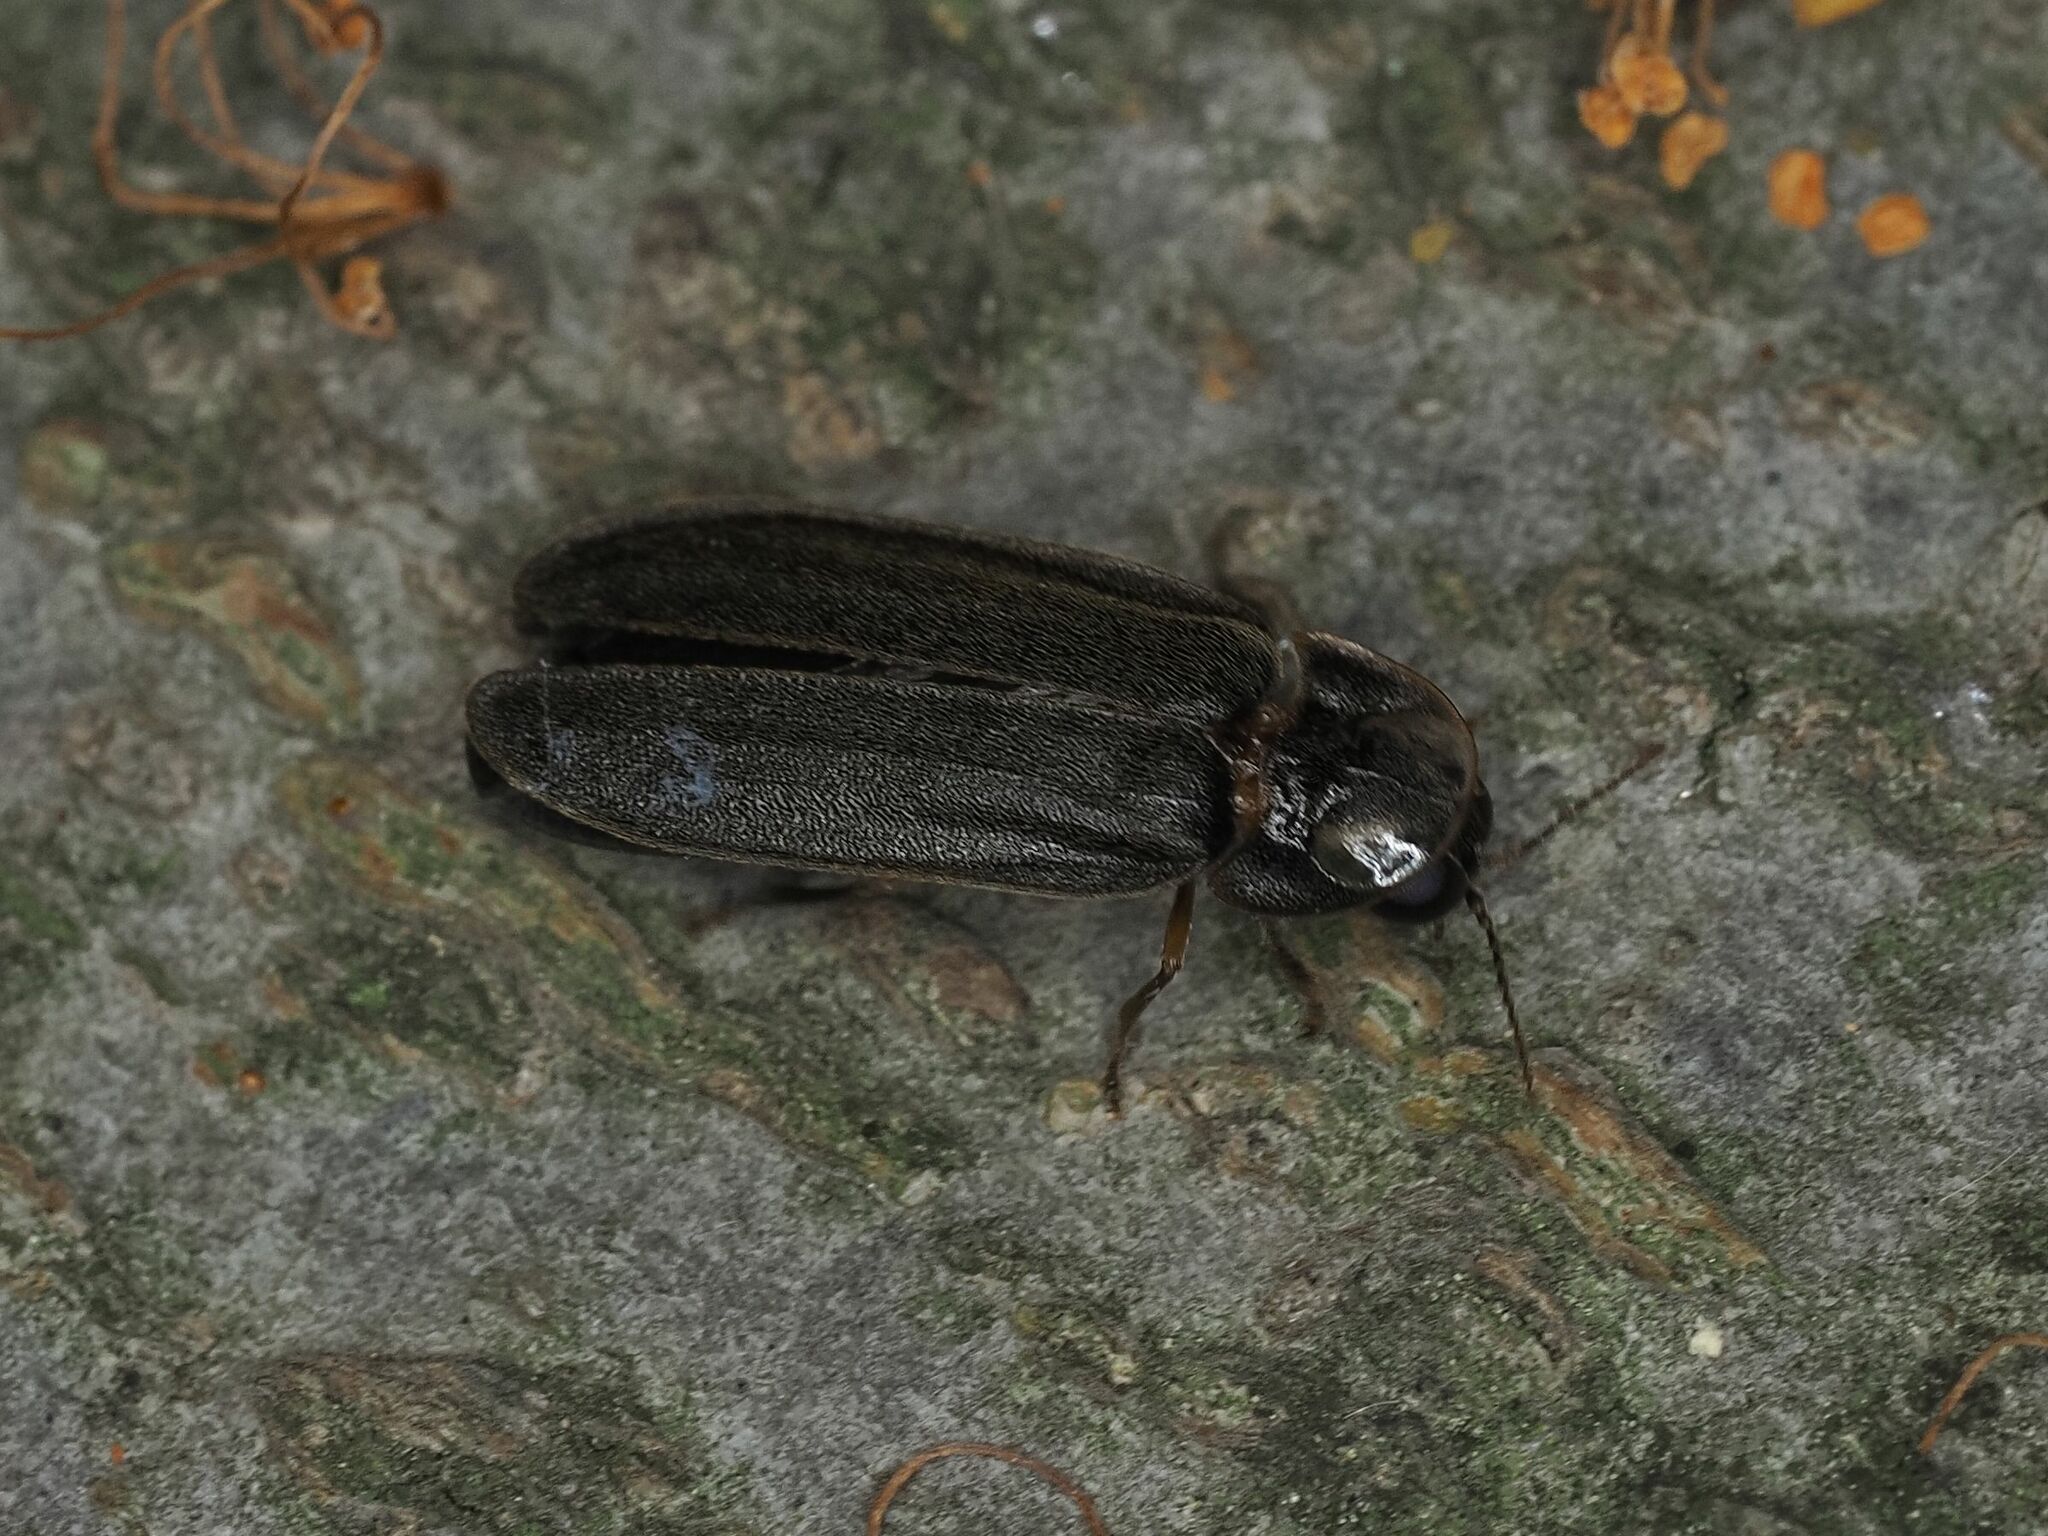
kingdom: Animalia
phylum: Arthropoda
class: Insecta
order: Coleoptera
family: Lampyridae
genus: Lamprohiza
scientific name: Lamprohiza splendidula
